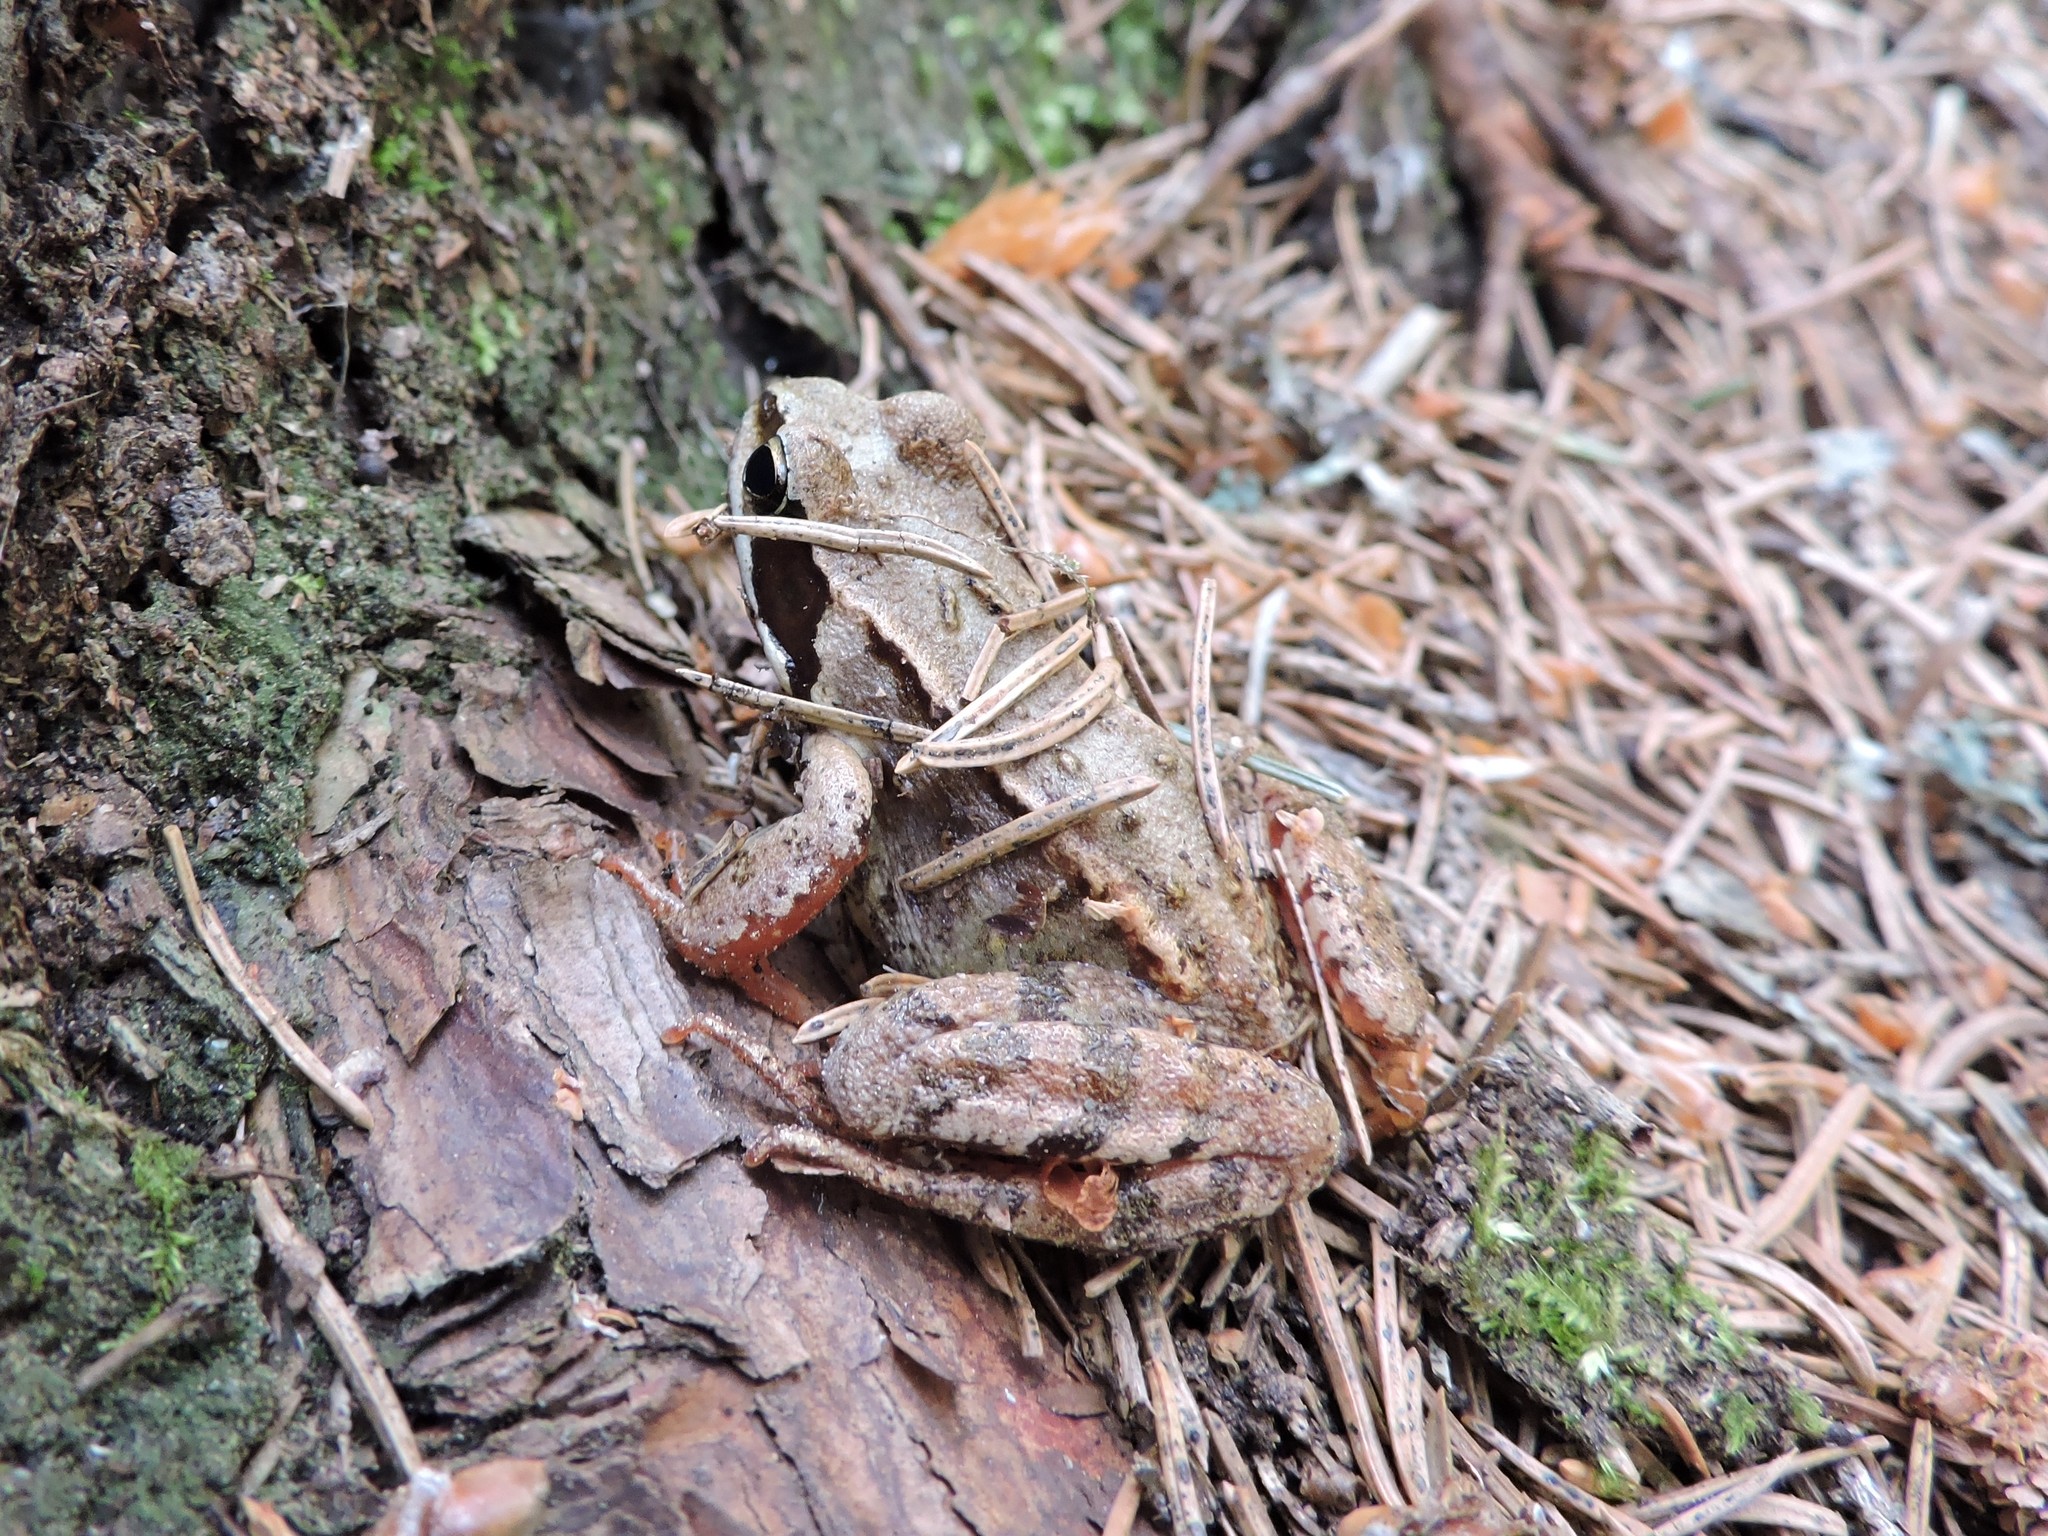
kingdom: Animalia
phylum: Chordata
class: Amphibia
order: Anura
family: Ranidae
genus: Rana
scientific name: Rana temporaria
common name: Common frog
